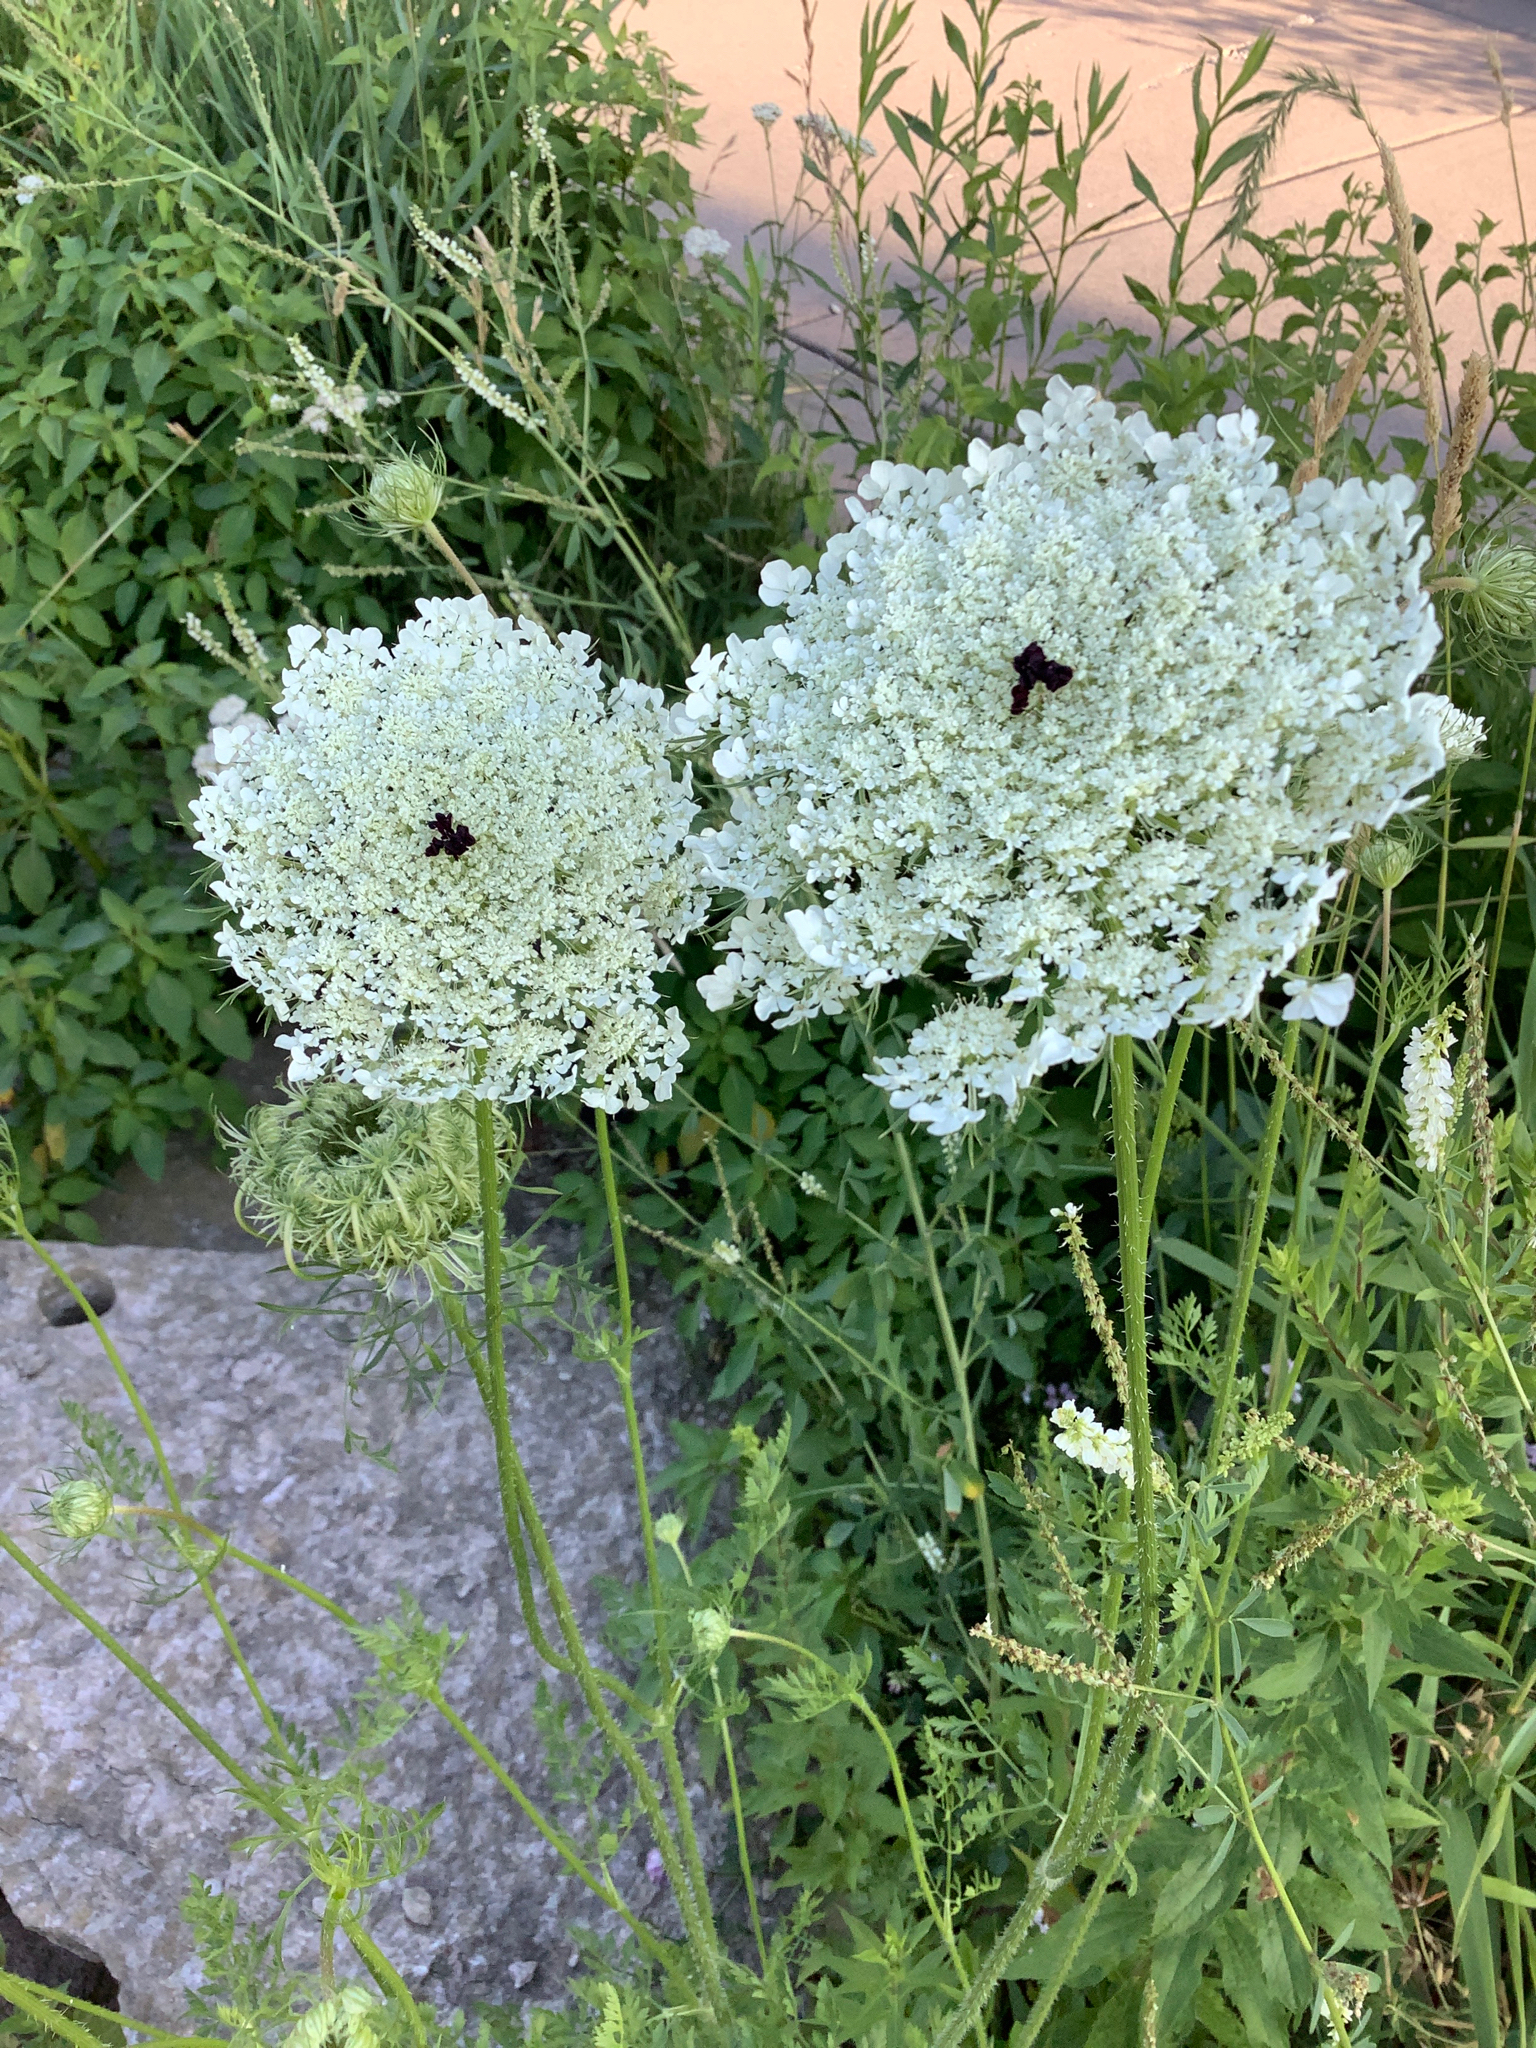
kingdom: Plantae
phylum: Tracheophyta
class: Magnoliopsida
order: Apiales
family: Apiaceae
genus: Daucus
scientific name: Daucus carota
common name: Wild carrot
